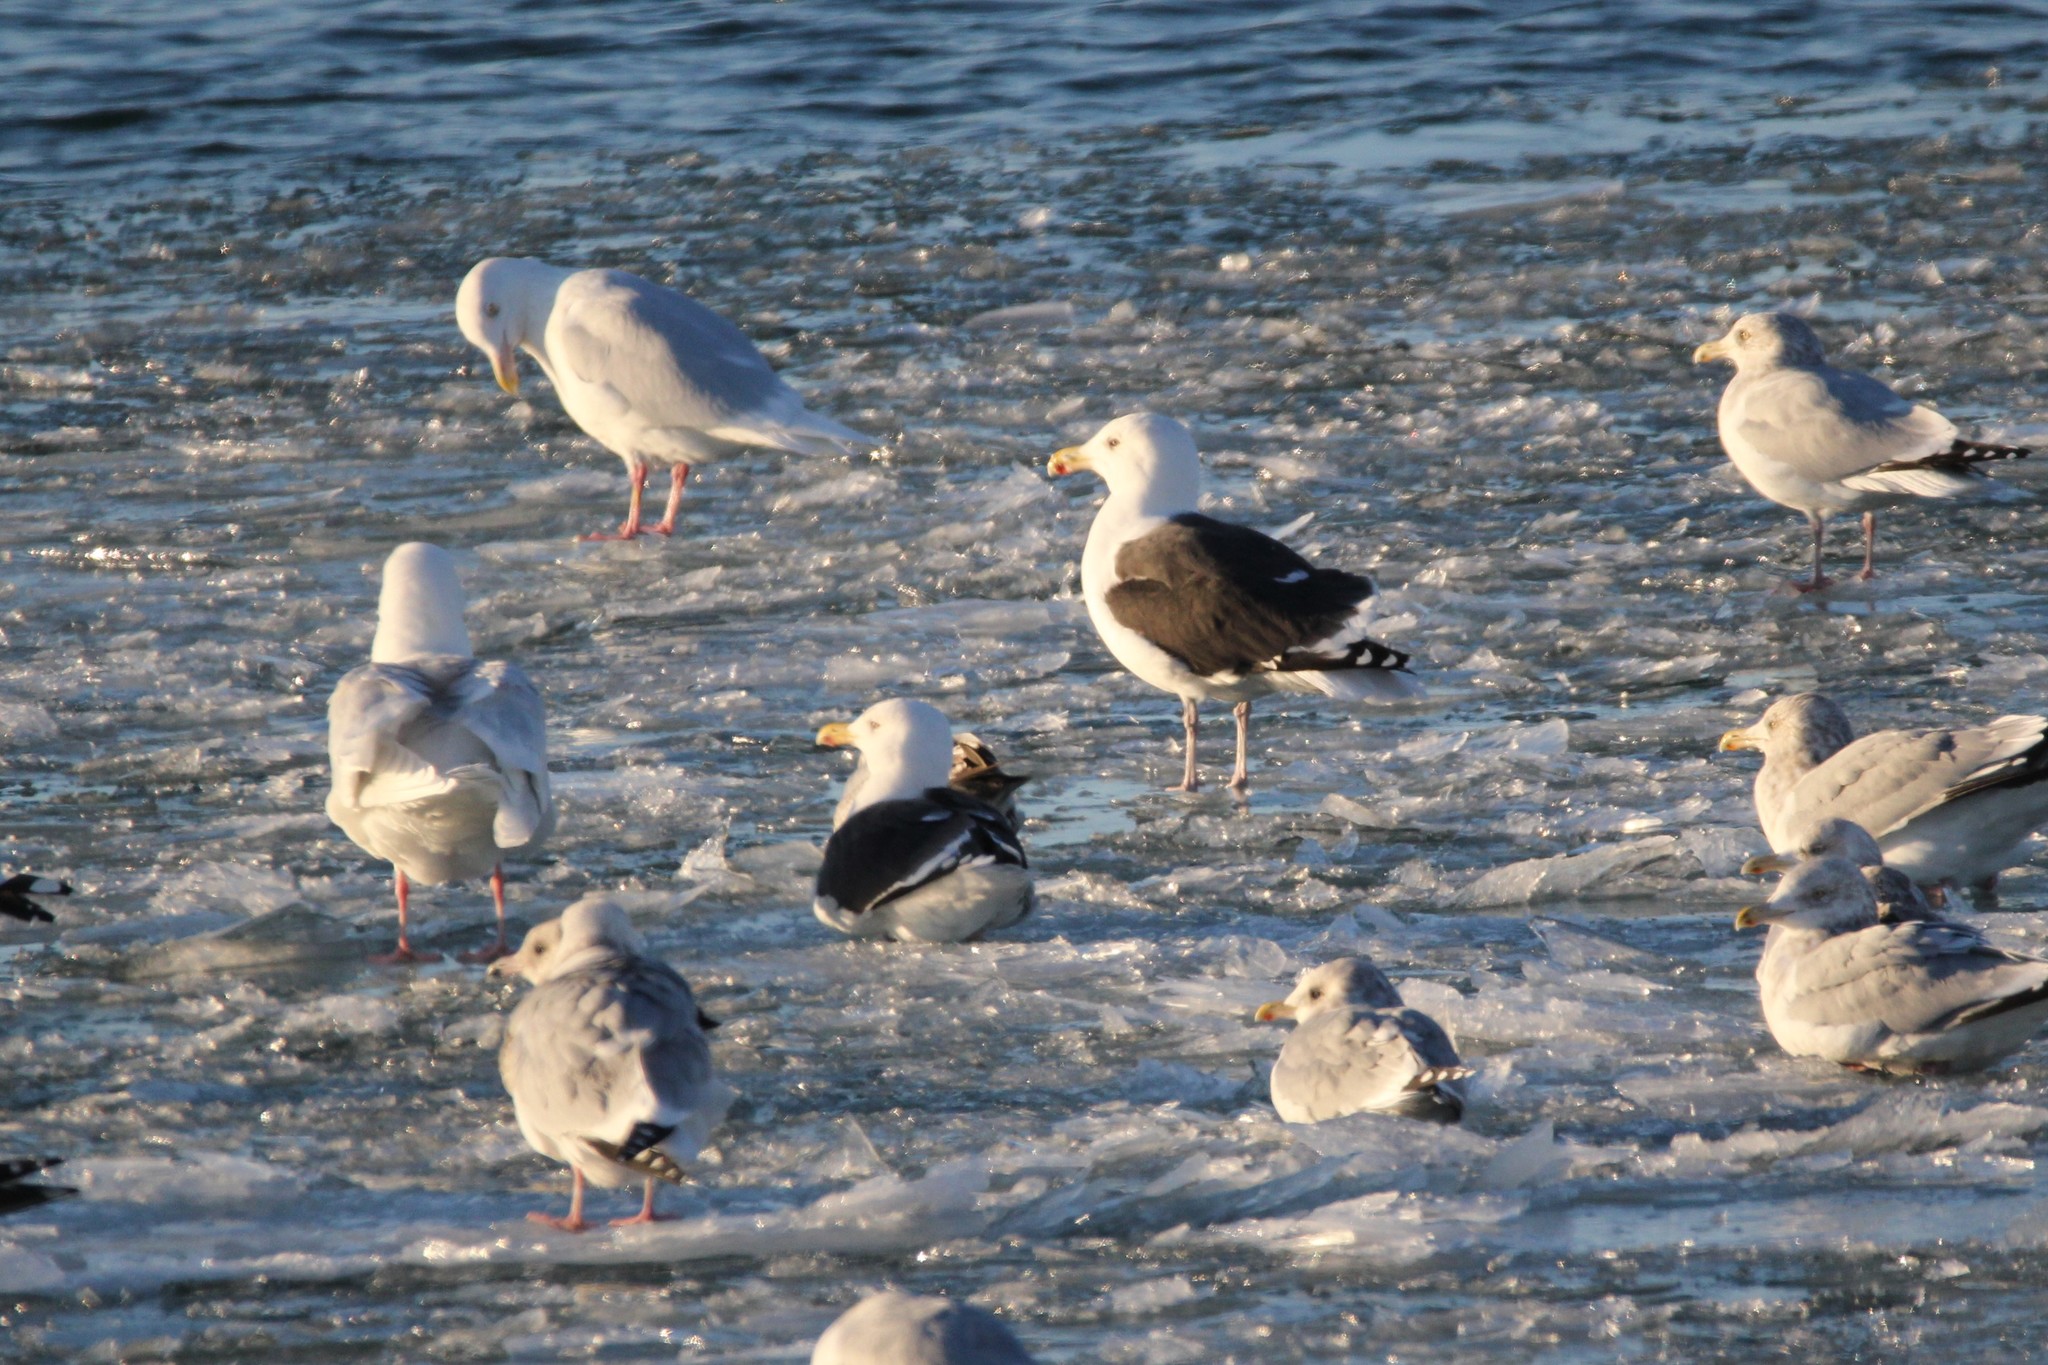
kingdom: Animalia
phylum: Chordata
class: Aves
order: Charadriiformes
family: Laridae
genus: Larus
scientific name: Larus marinus
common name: Great black-backed gull
